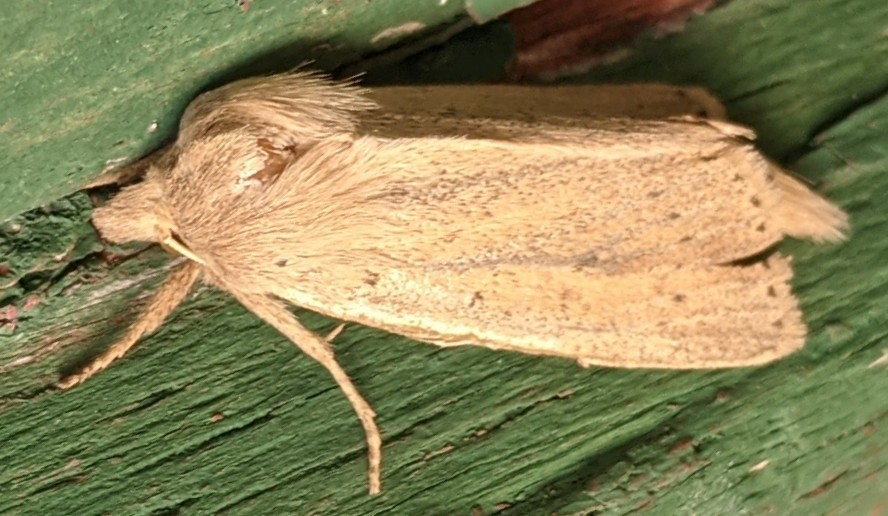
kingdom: Animalia
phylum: Arthropoda
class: Insecta
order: Lepidoptera
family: Noctuidae
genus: Globia
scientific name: Globia oblonga
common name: Oblong sedge borer moth
